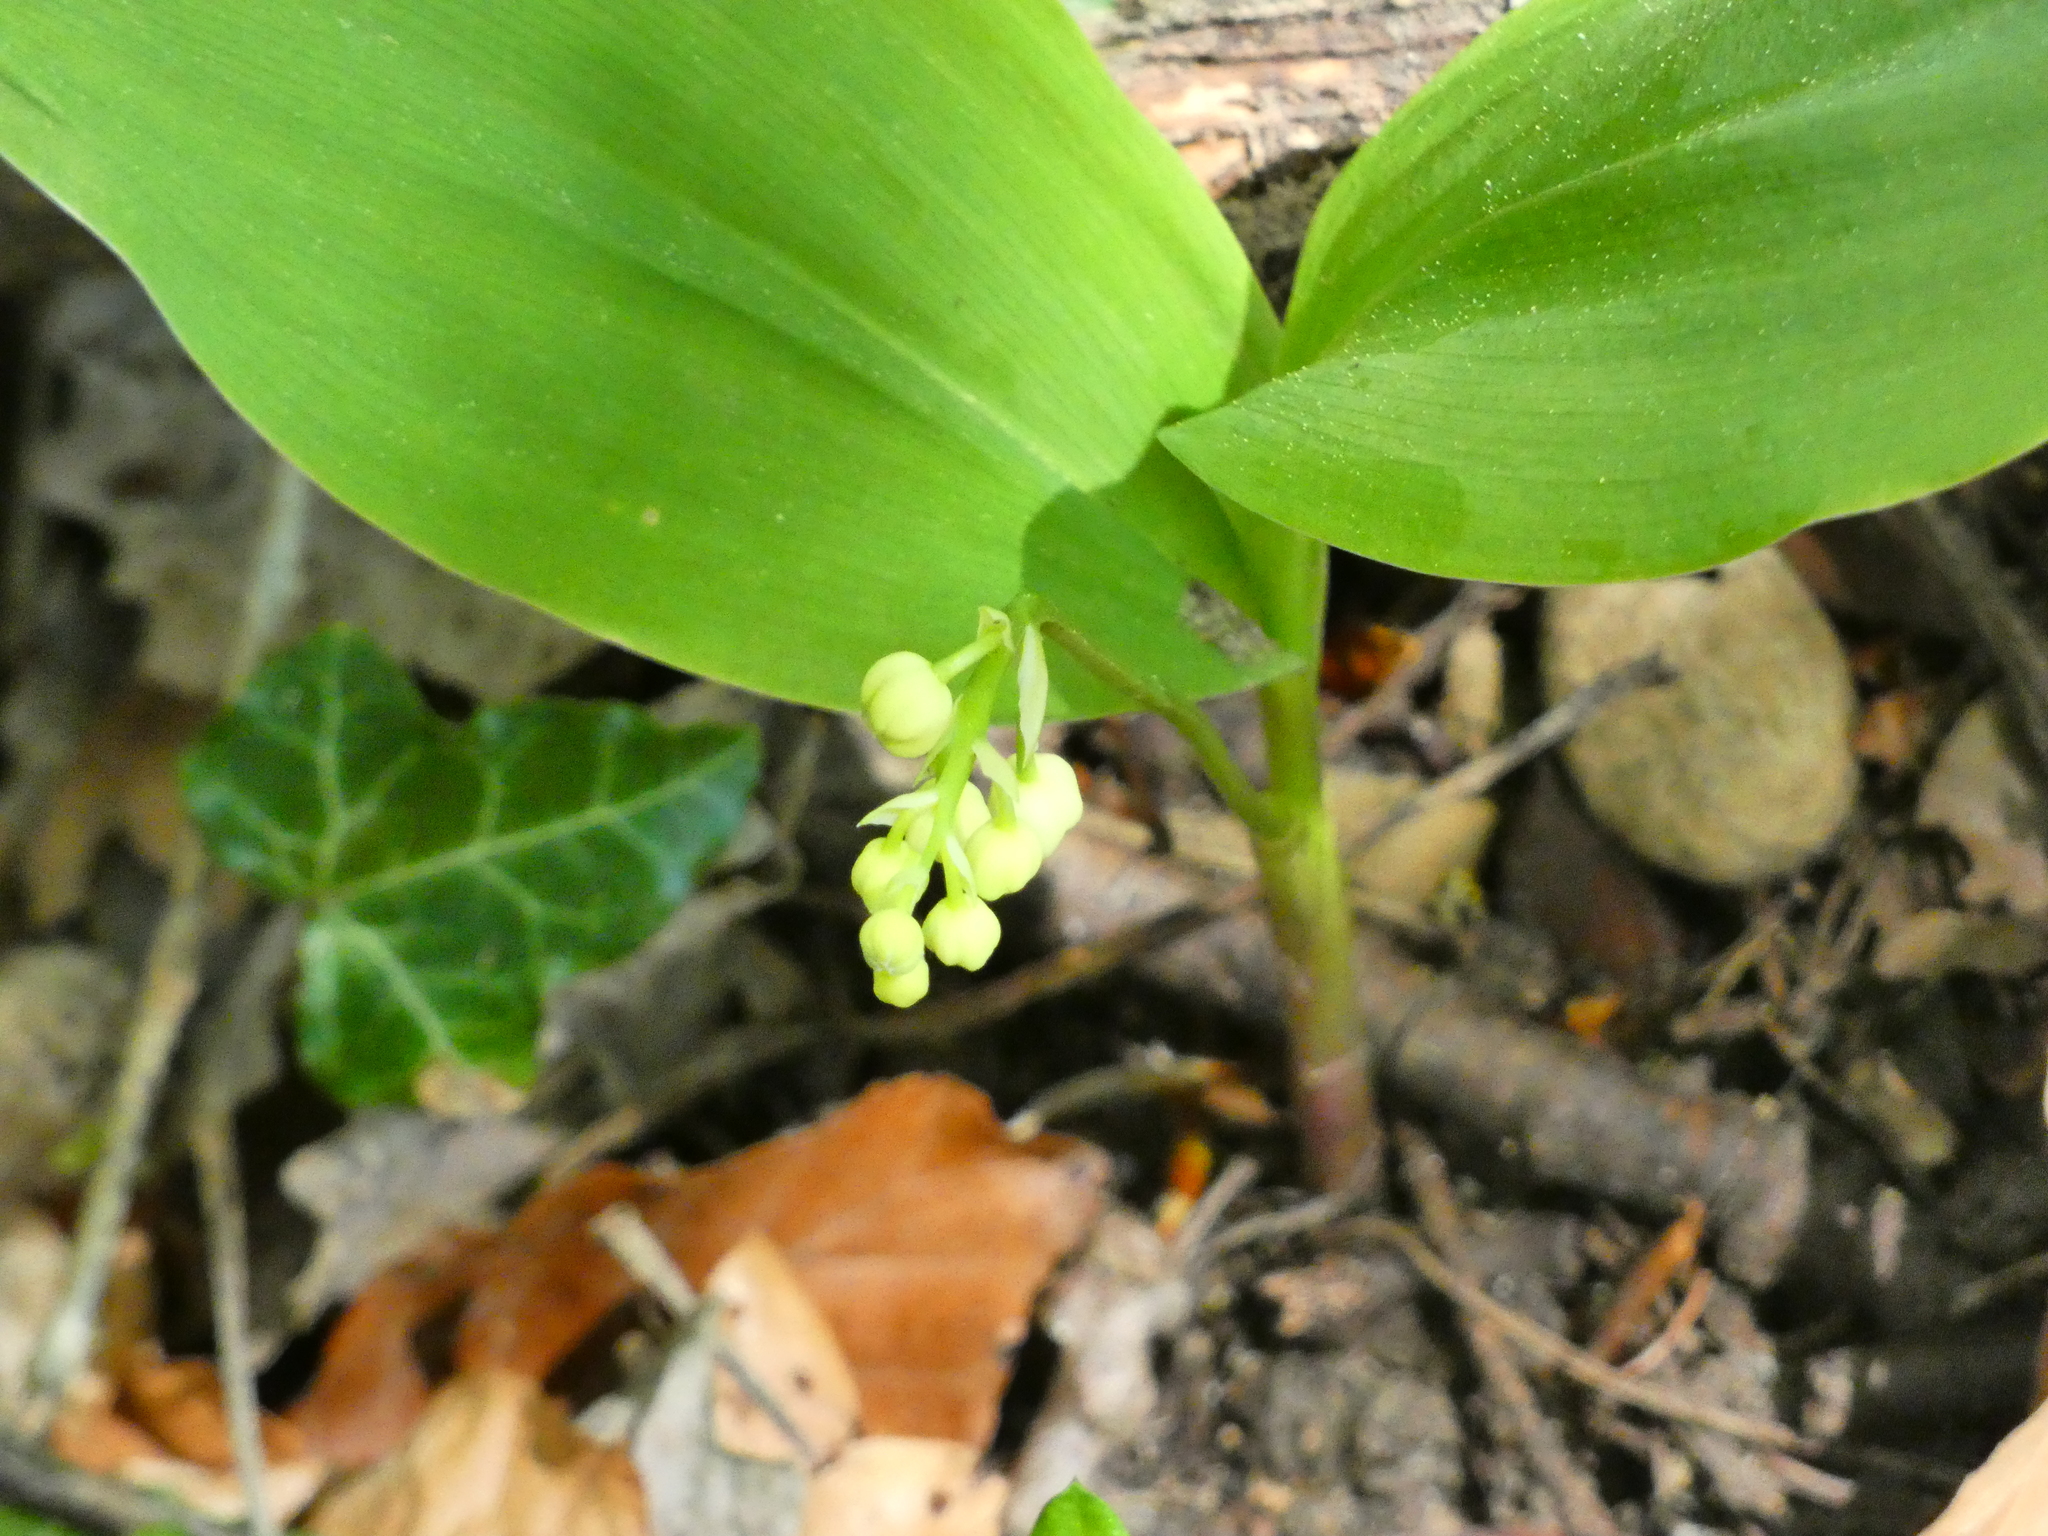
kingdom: Plantae
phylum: Tracheophyta
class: Liliopsida
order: Asparagales
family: Asparagaceae
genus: Convallaria
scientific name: Convallaria majalis
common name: Lily-of-the-valley
